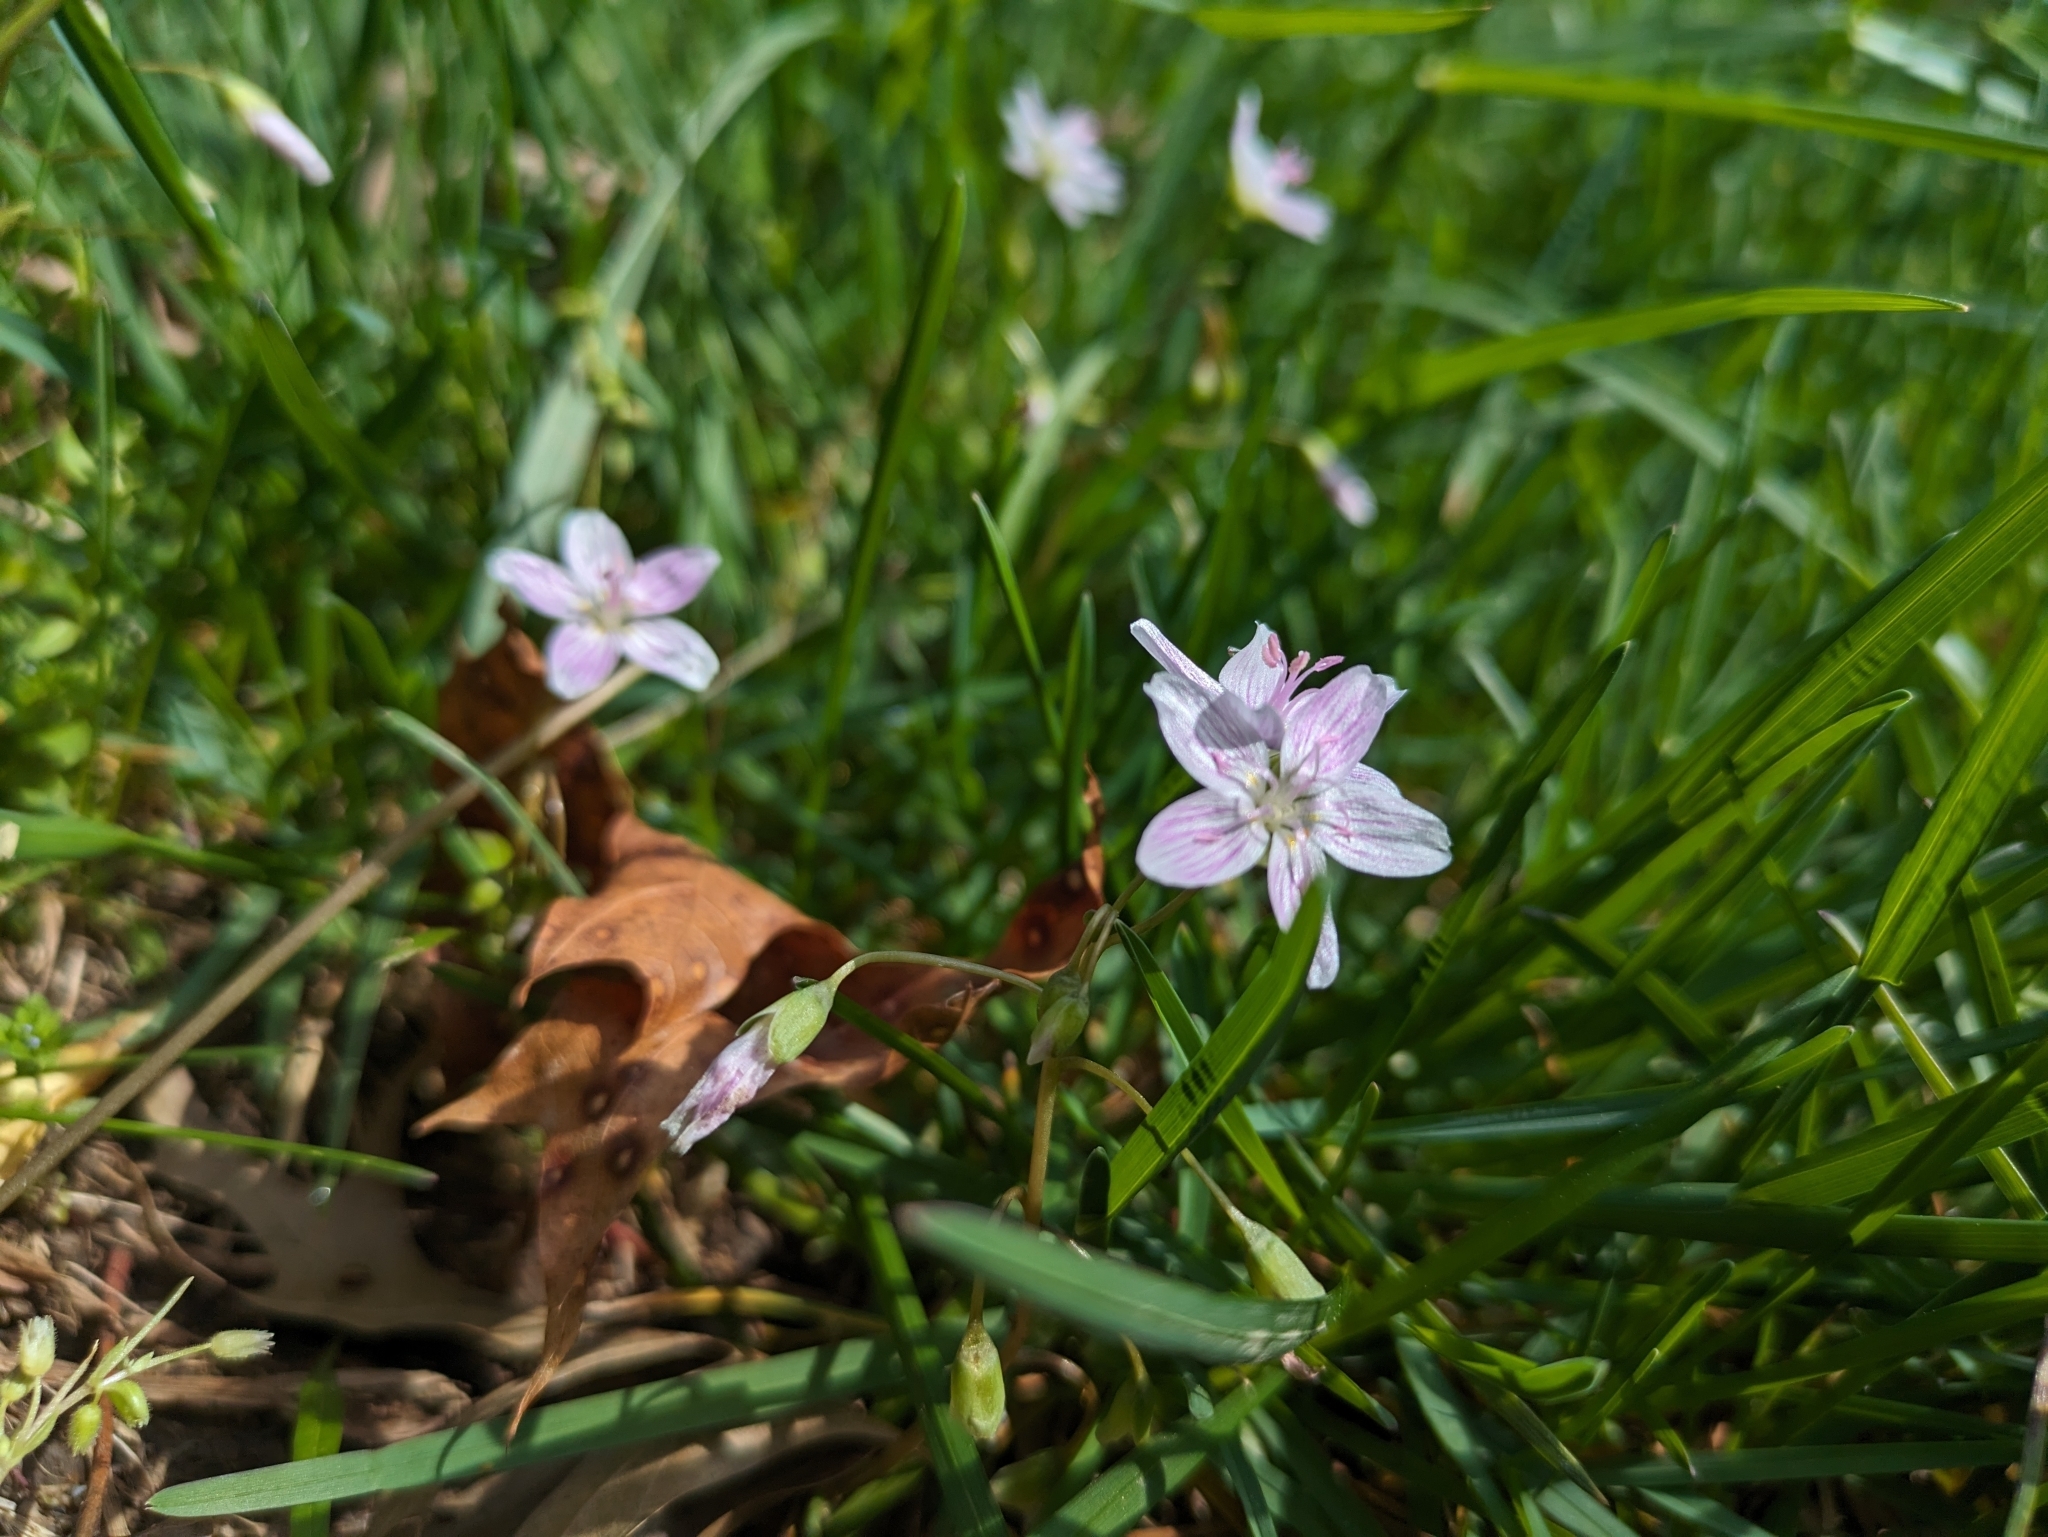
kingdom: Plantae
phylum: Tracheophyta
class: Magnoliopsida
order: Caryophyllales
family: Montiaceae
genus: Claytonia
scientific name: Claytonia virginica
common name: Virginia springbeauty
